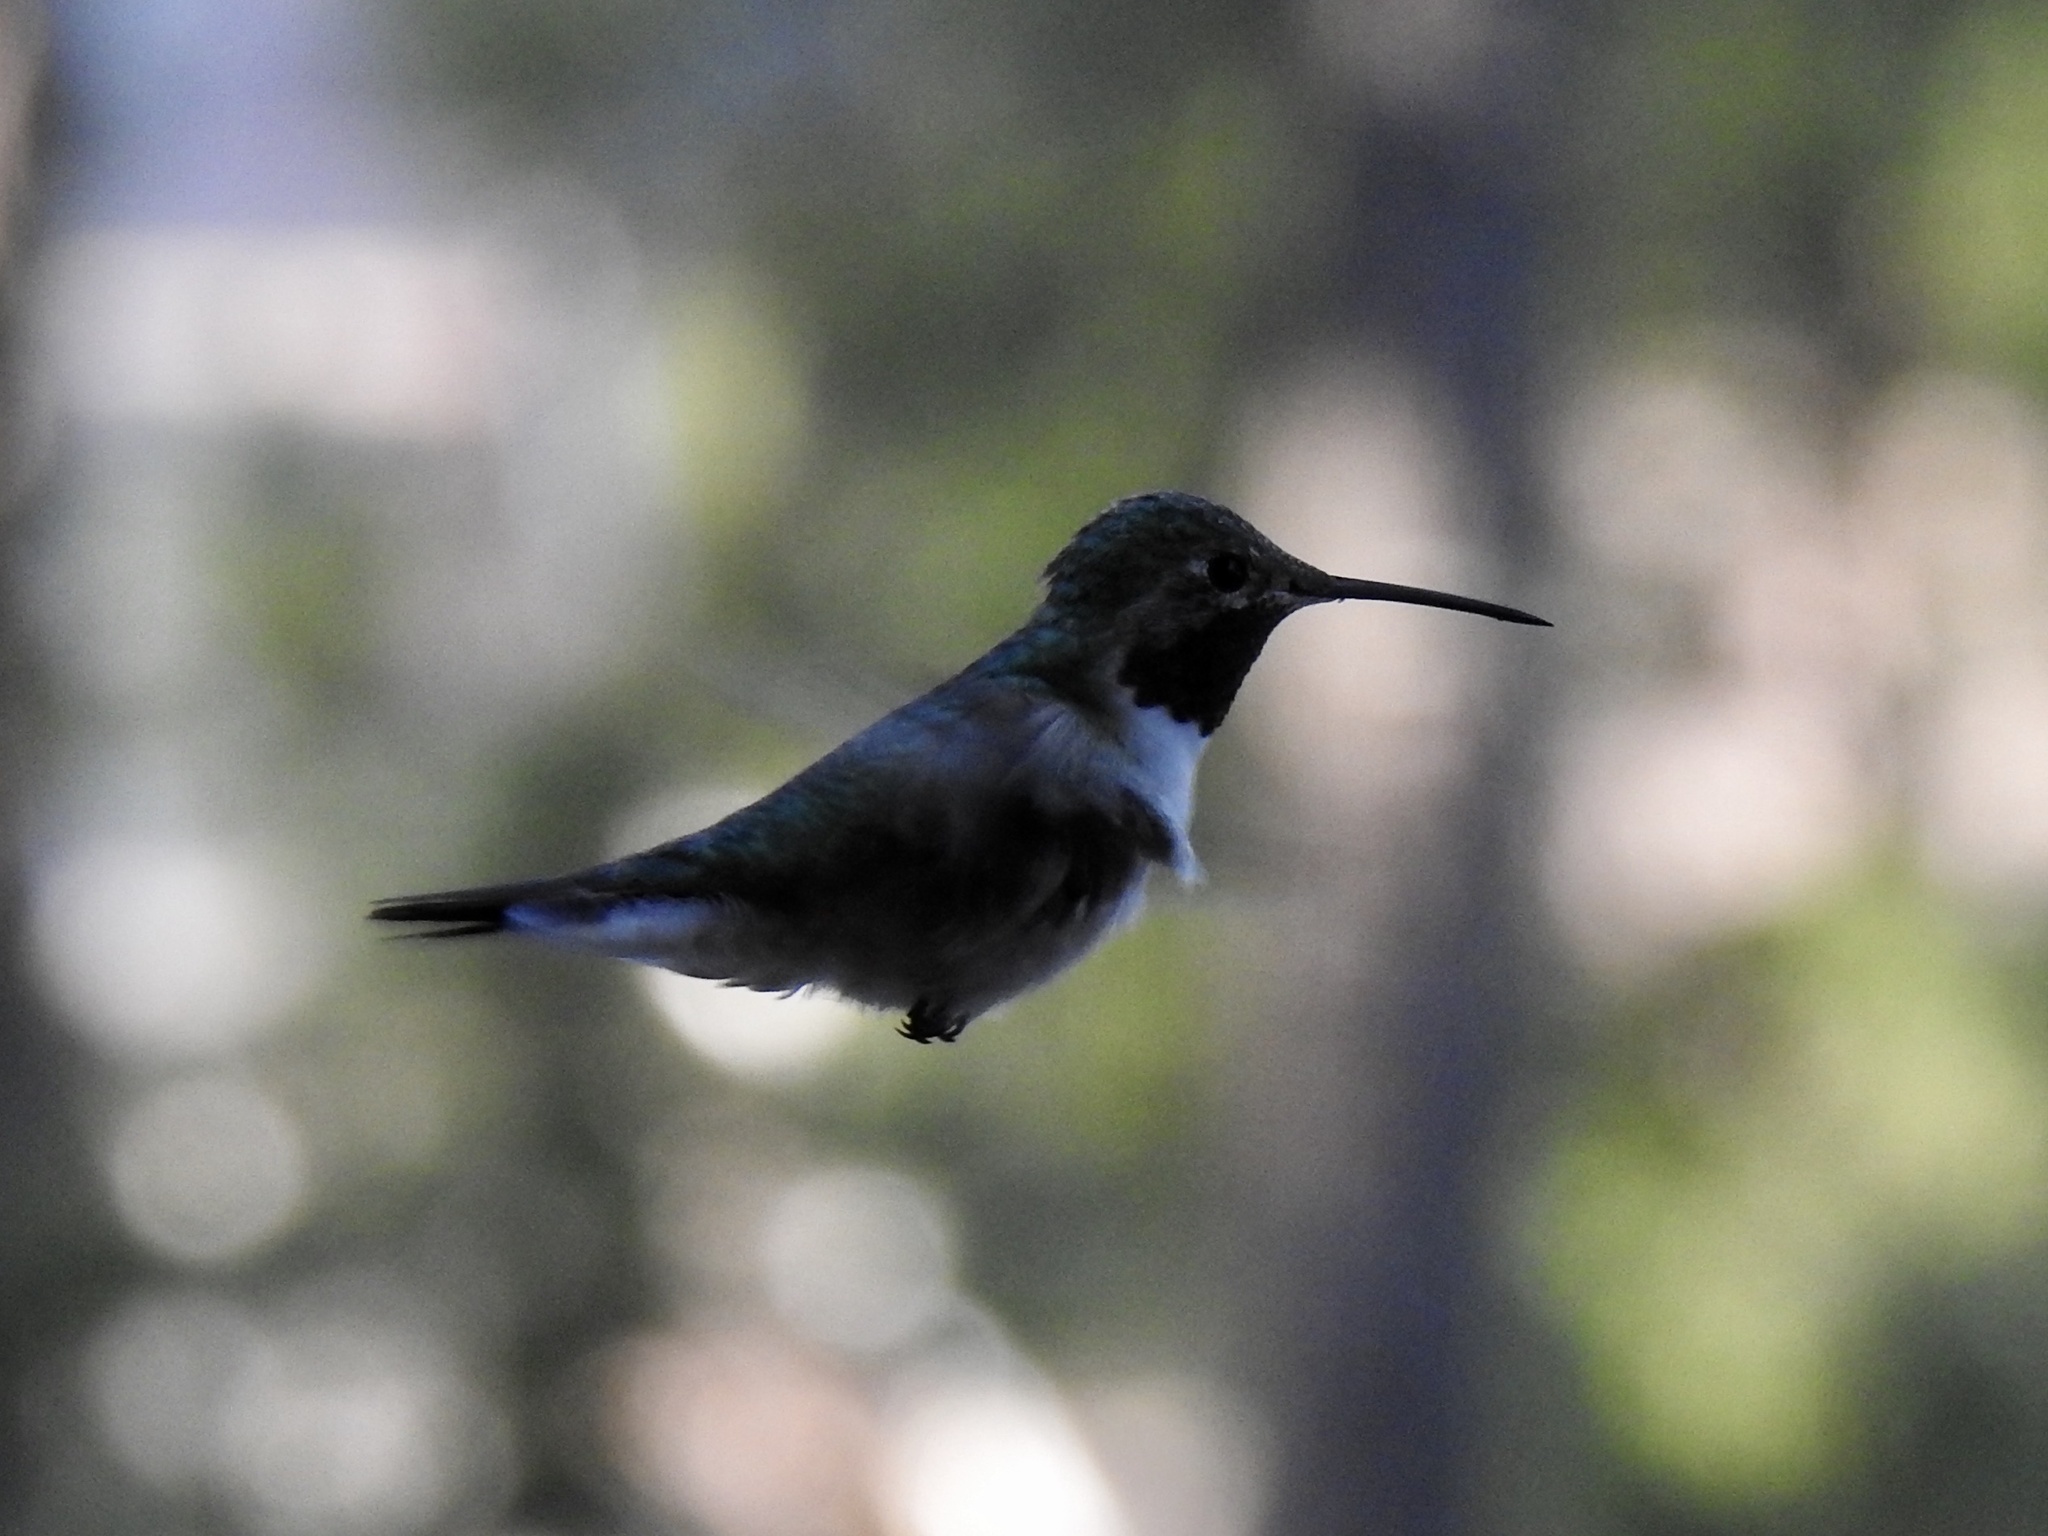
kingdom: Animalia
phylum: Chordata
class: Aves
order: Apodiformes
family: Trochilidae
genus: Selasphorus
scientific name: Selasphorus platycercus
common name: Broad-tailed hummingbird
